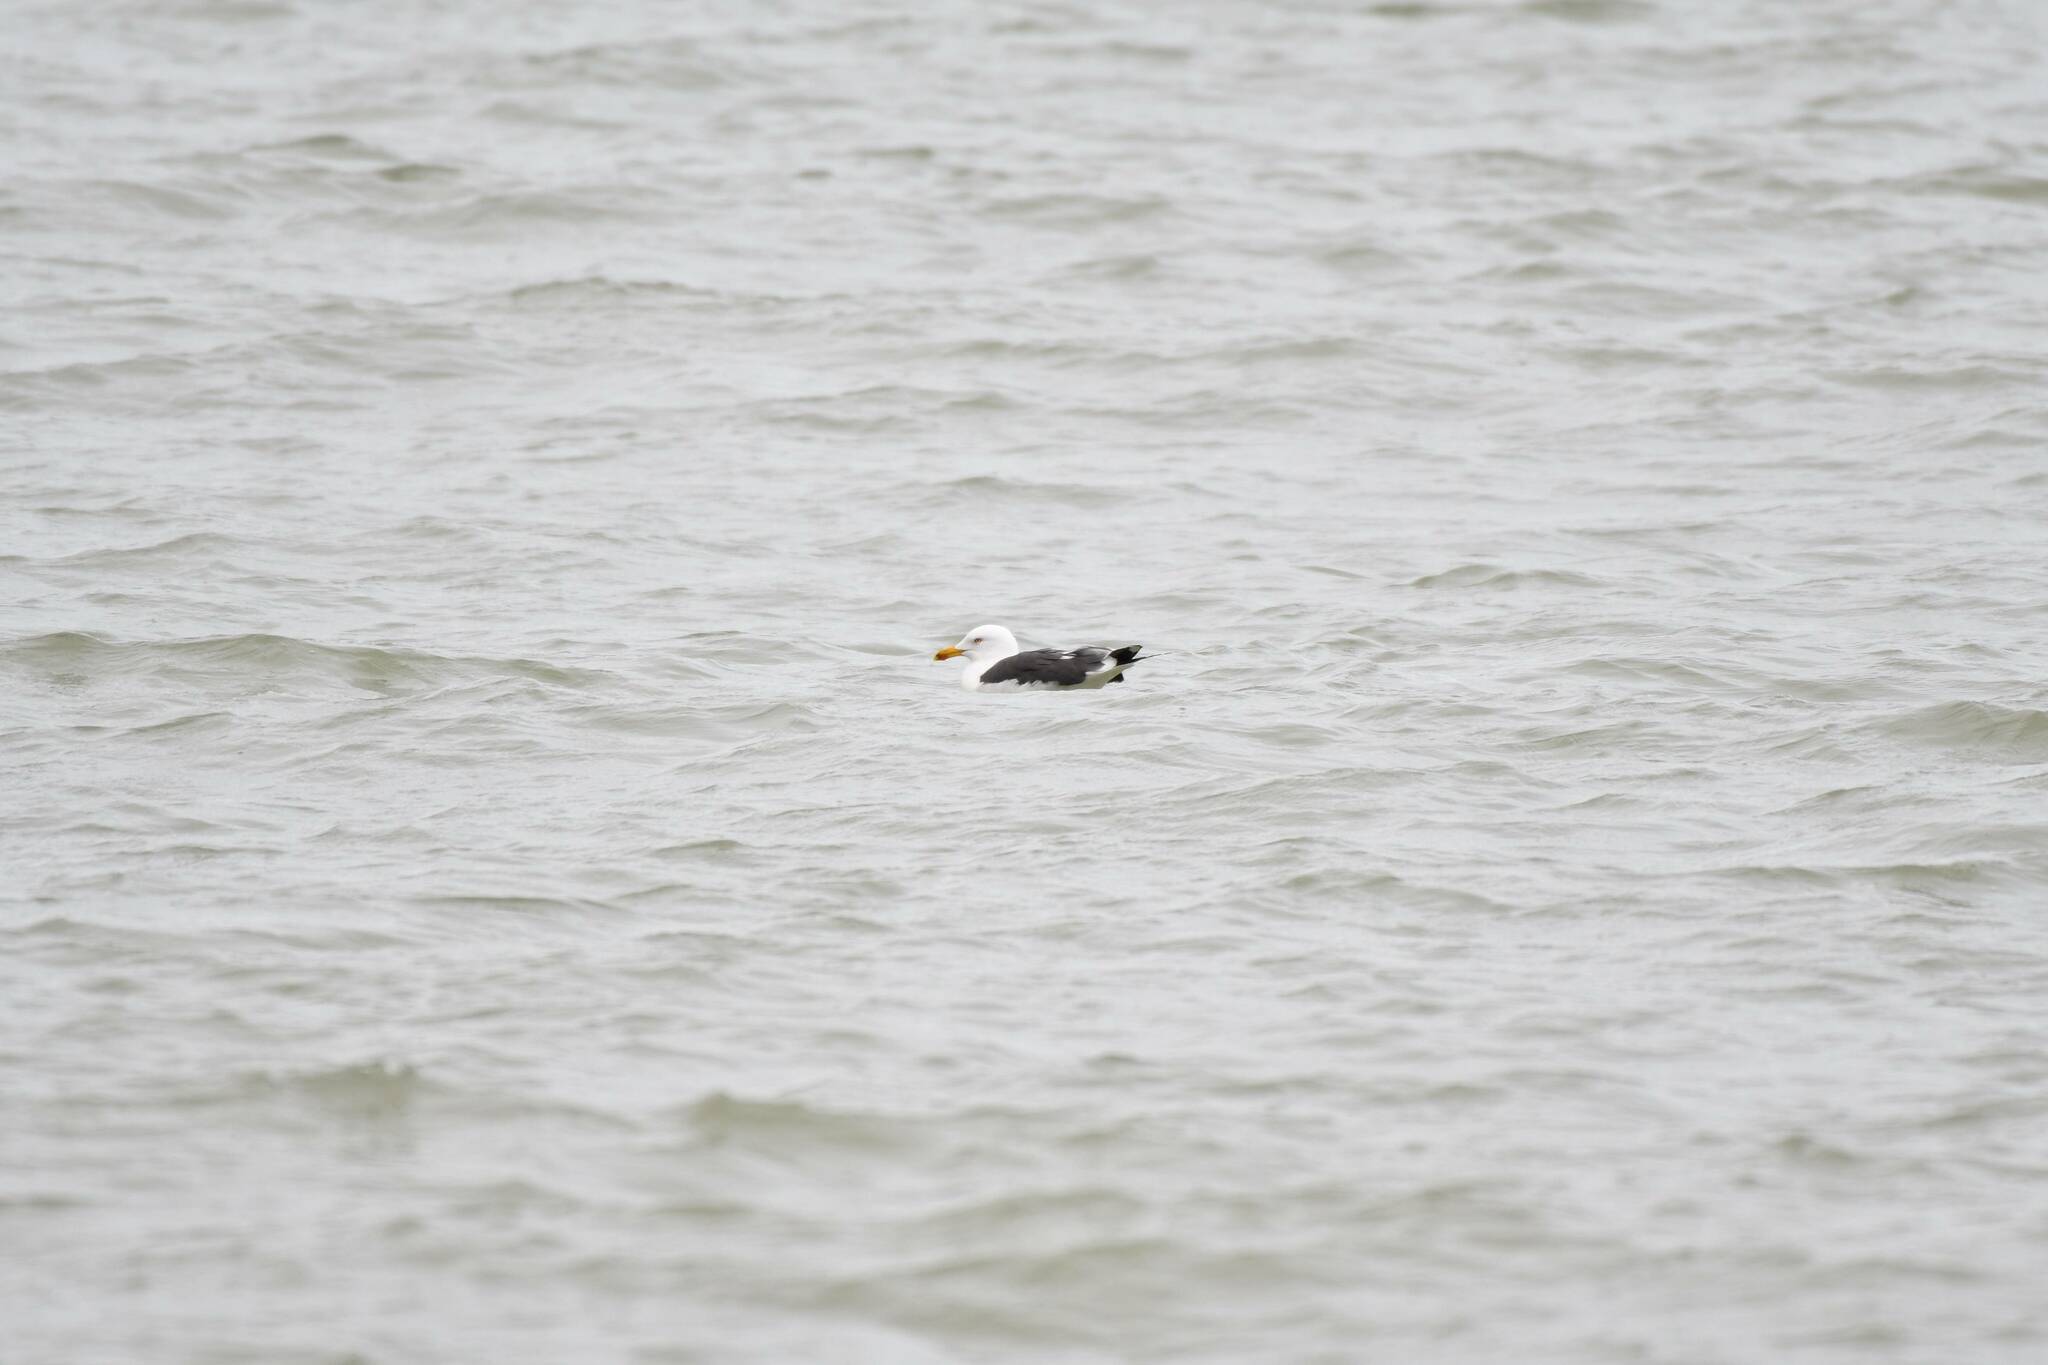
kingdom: Animalia
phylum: Chordata
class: Aves
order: Charadriiformes
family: Laridae
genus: Larus
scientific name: Larus fuscus
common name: Lesser black-backed gull
